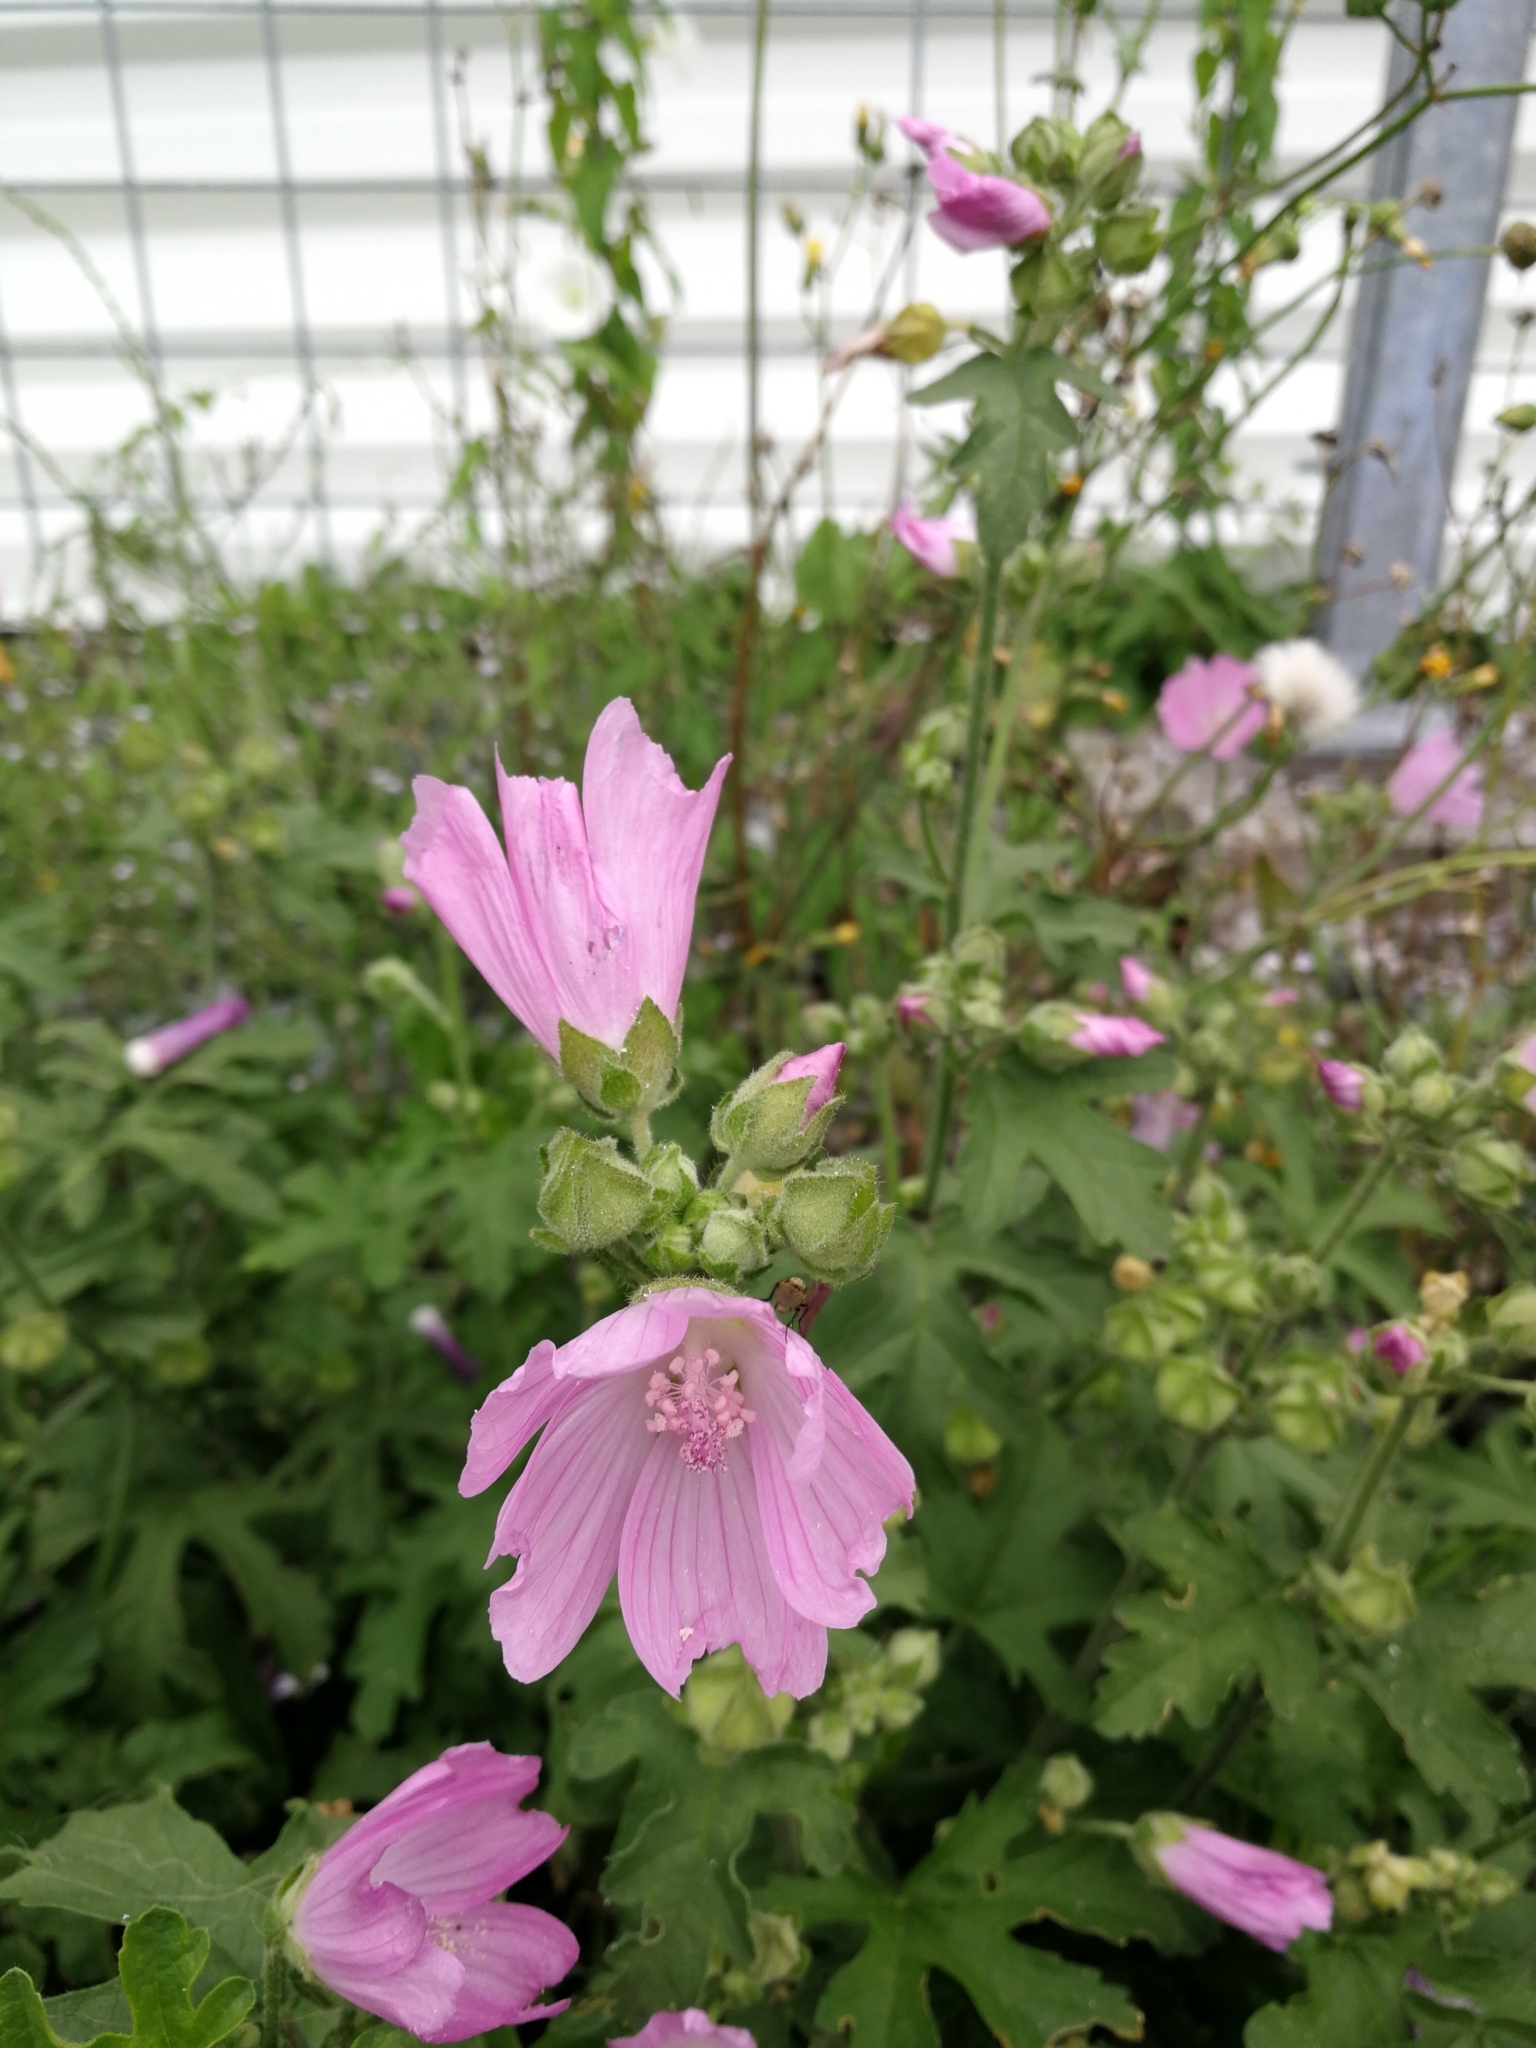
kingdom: Plantae
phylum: Tracheophyta
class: Magnoliopsida
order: Malvales
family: Malvaceae
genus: Malva
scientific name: Malva alcea
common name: Greater musk-mallow
